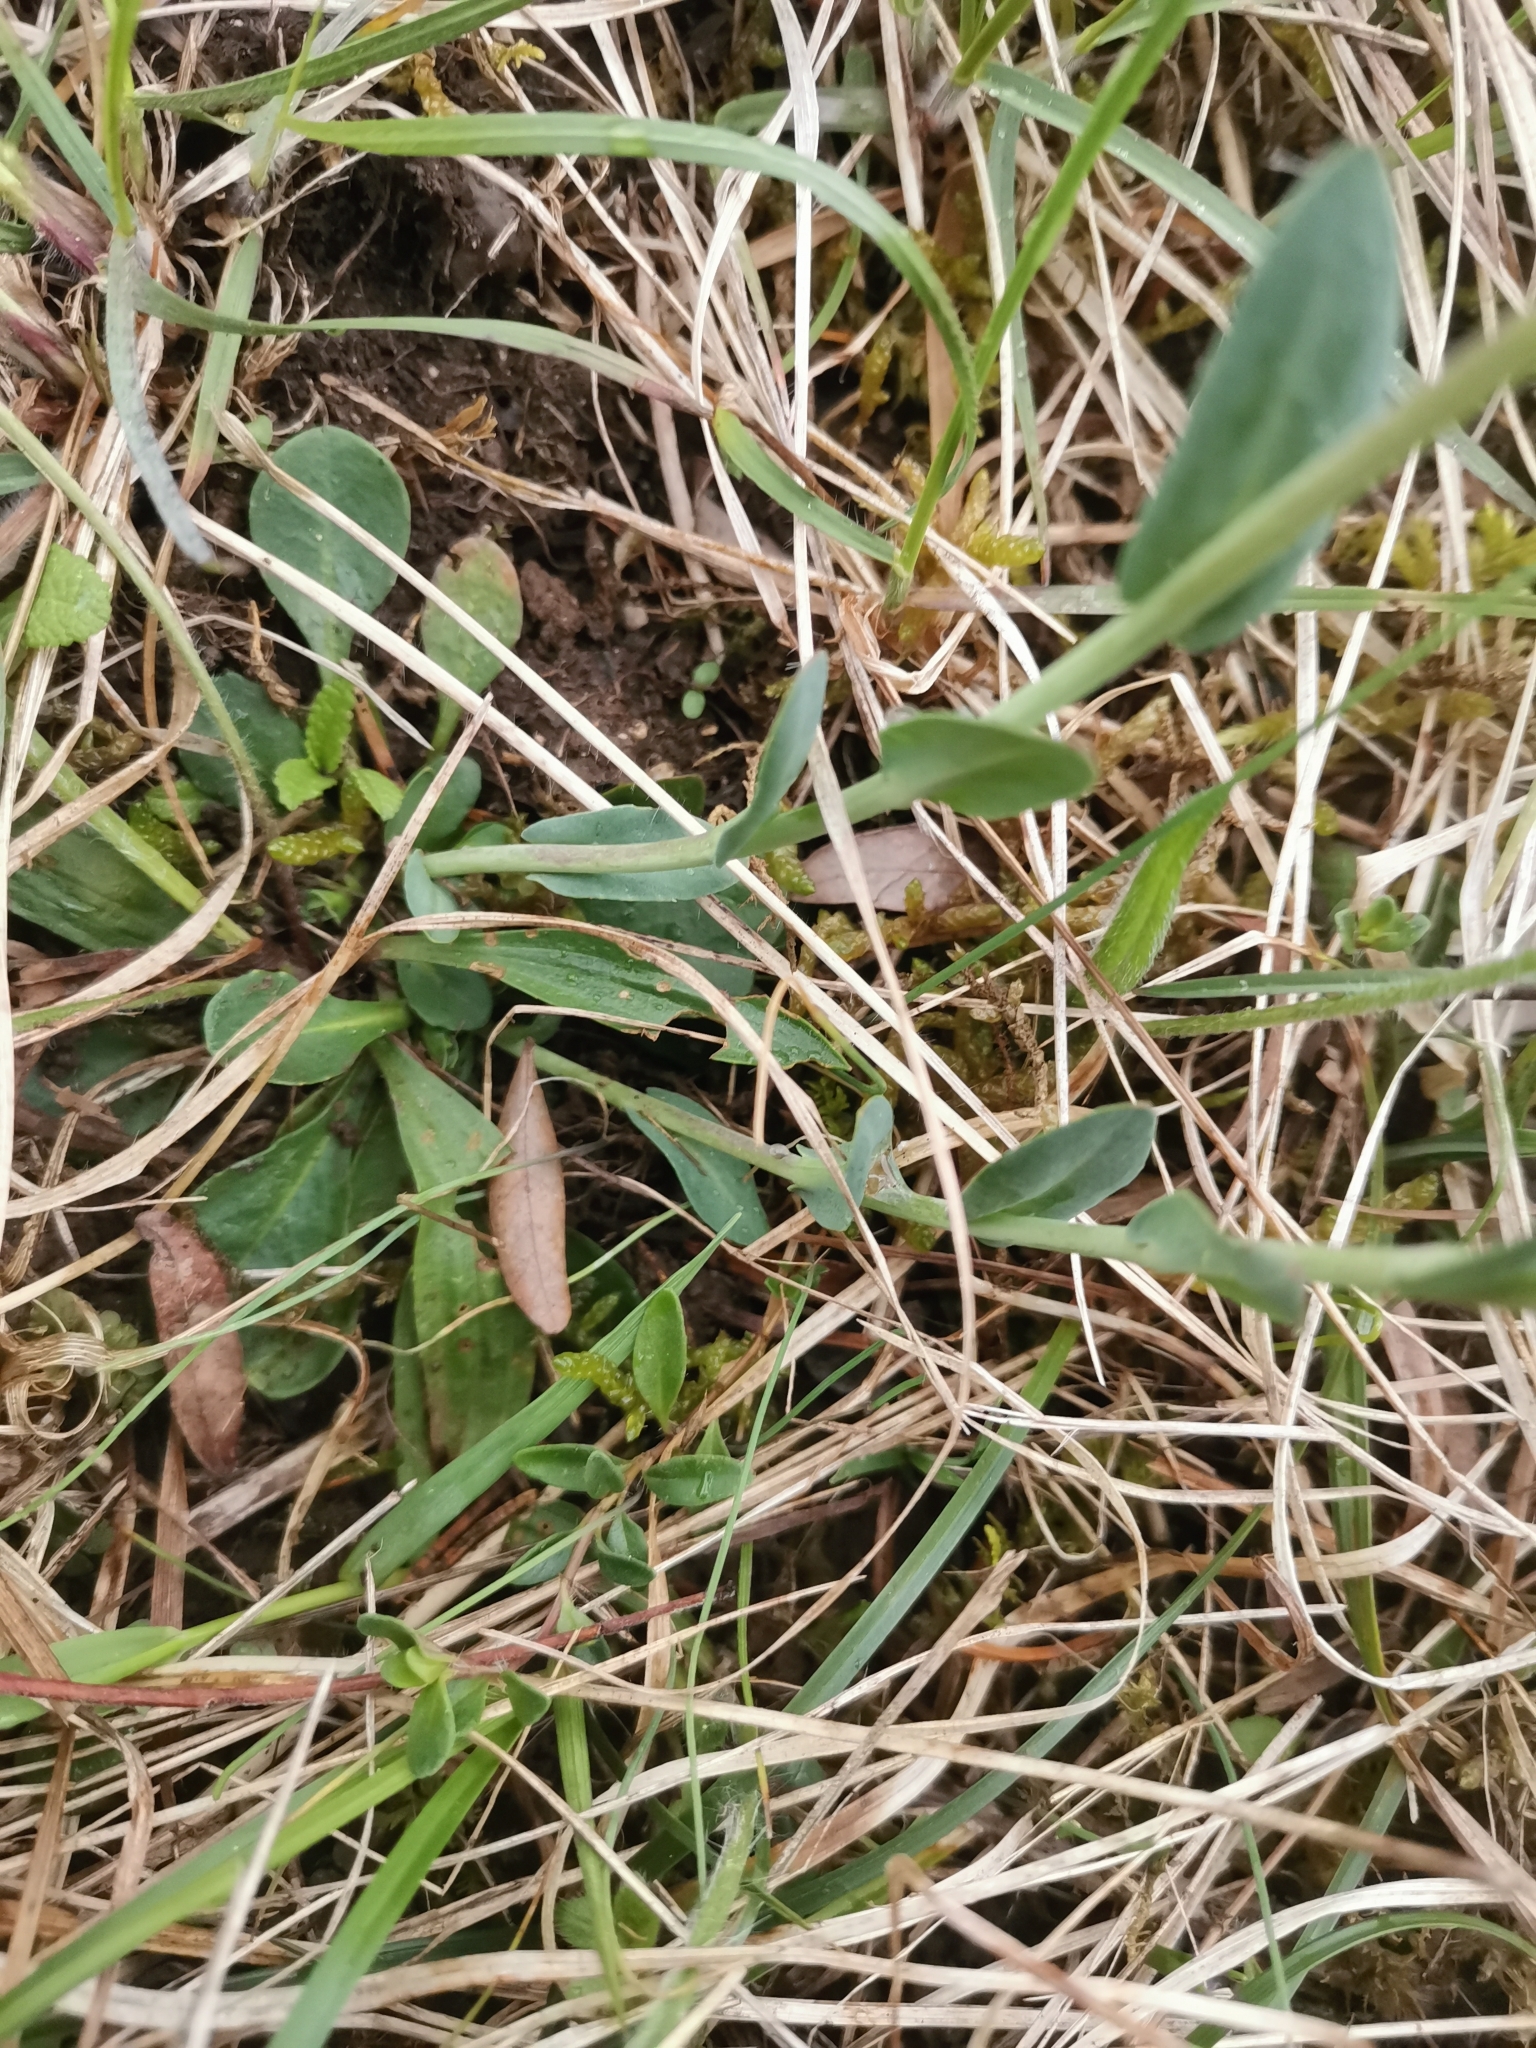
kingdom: Plantae
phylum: Tracheophyta
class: Magnoliopsida
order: Brassicales
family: Brassicaceae
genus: Noccaea
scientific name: Noccaea praecox
